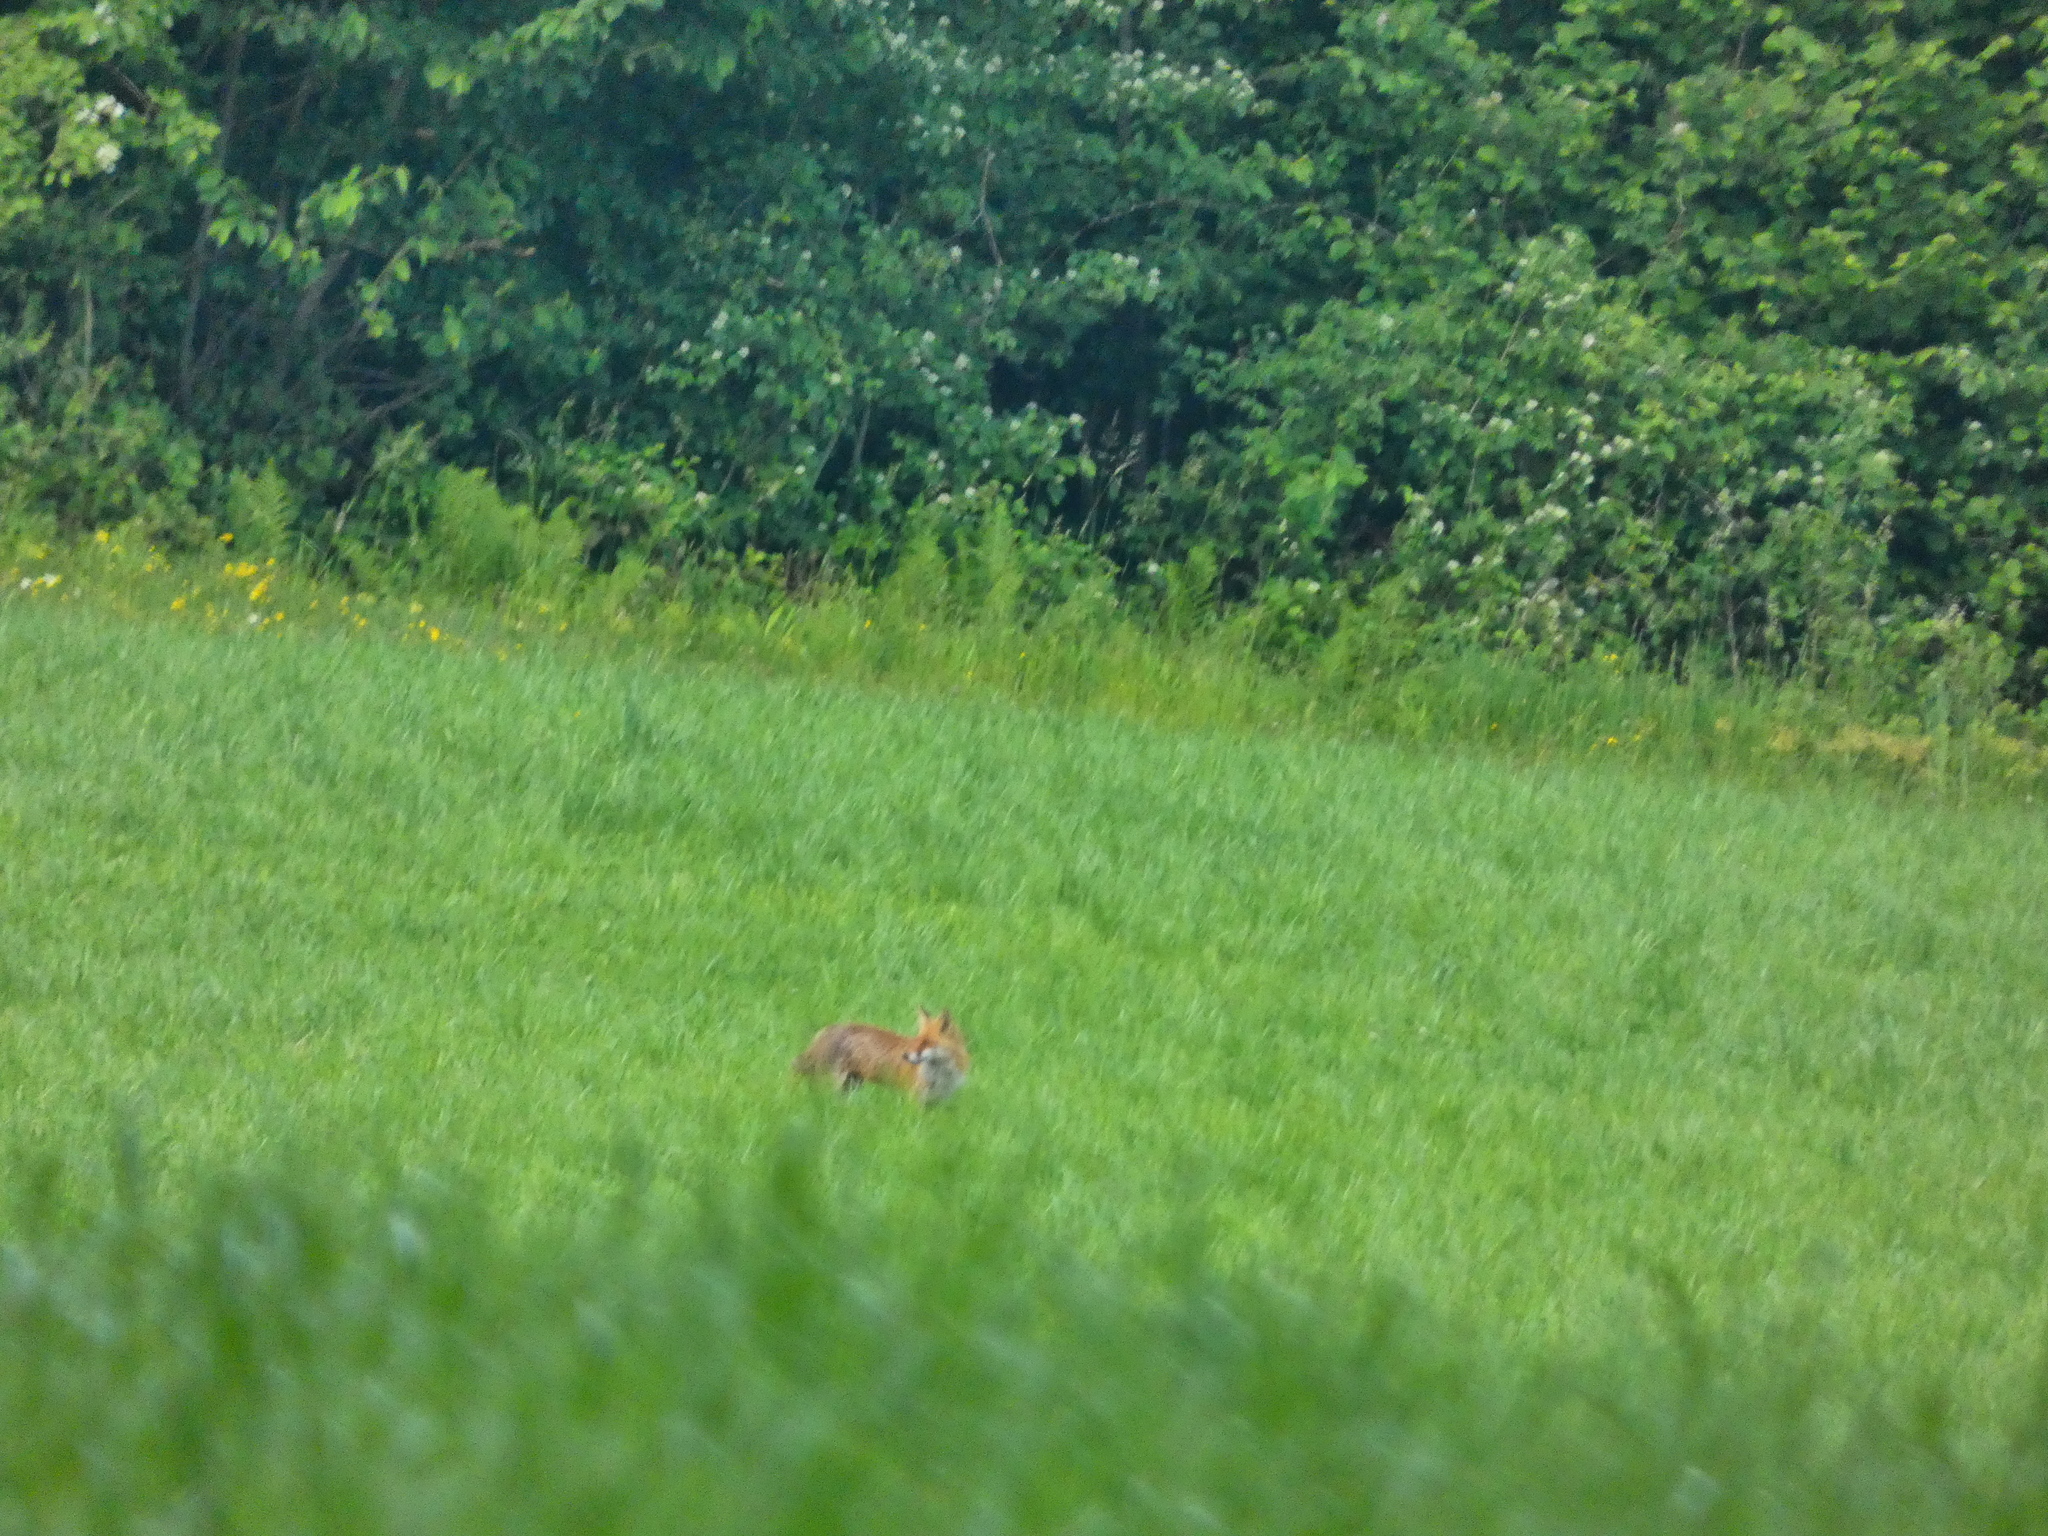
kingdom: Animalia
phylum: Chordata
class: Mammalia
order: Carnivora
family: Canidae
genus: Vulpes
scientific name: Vulpes vulpes
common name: Red fox
